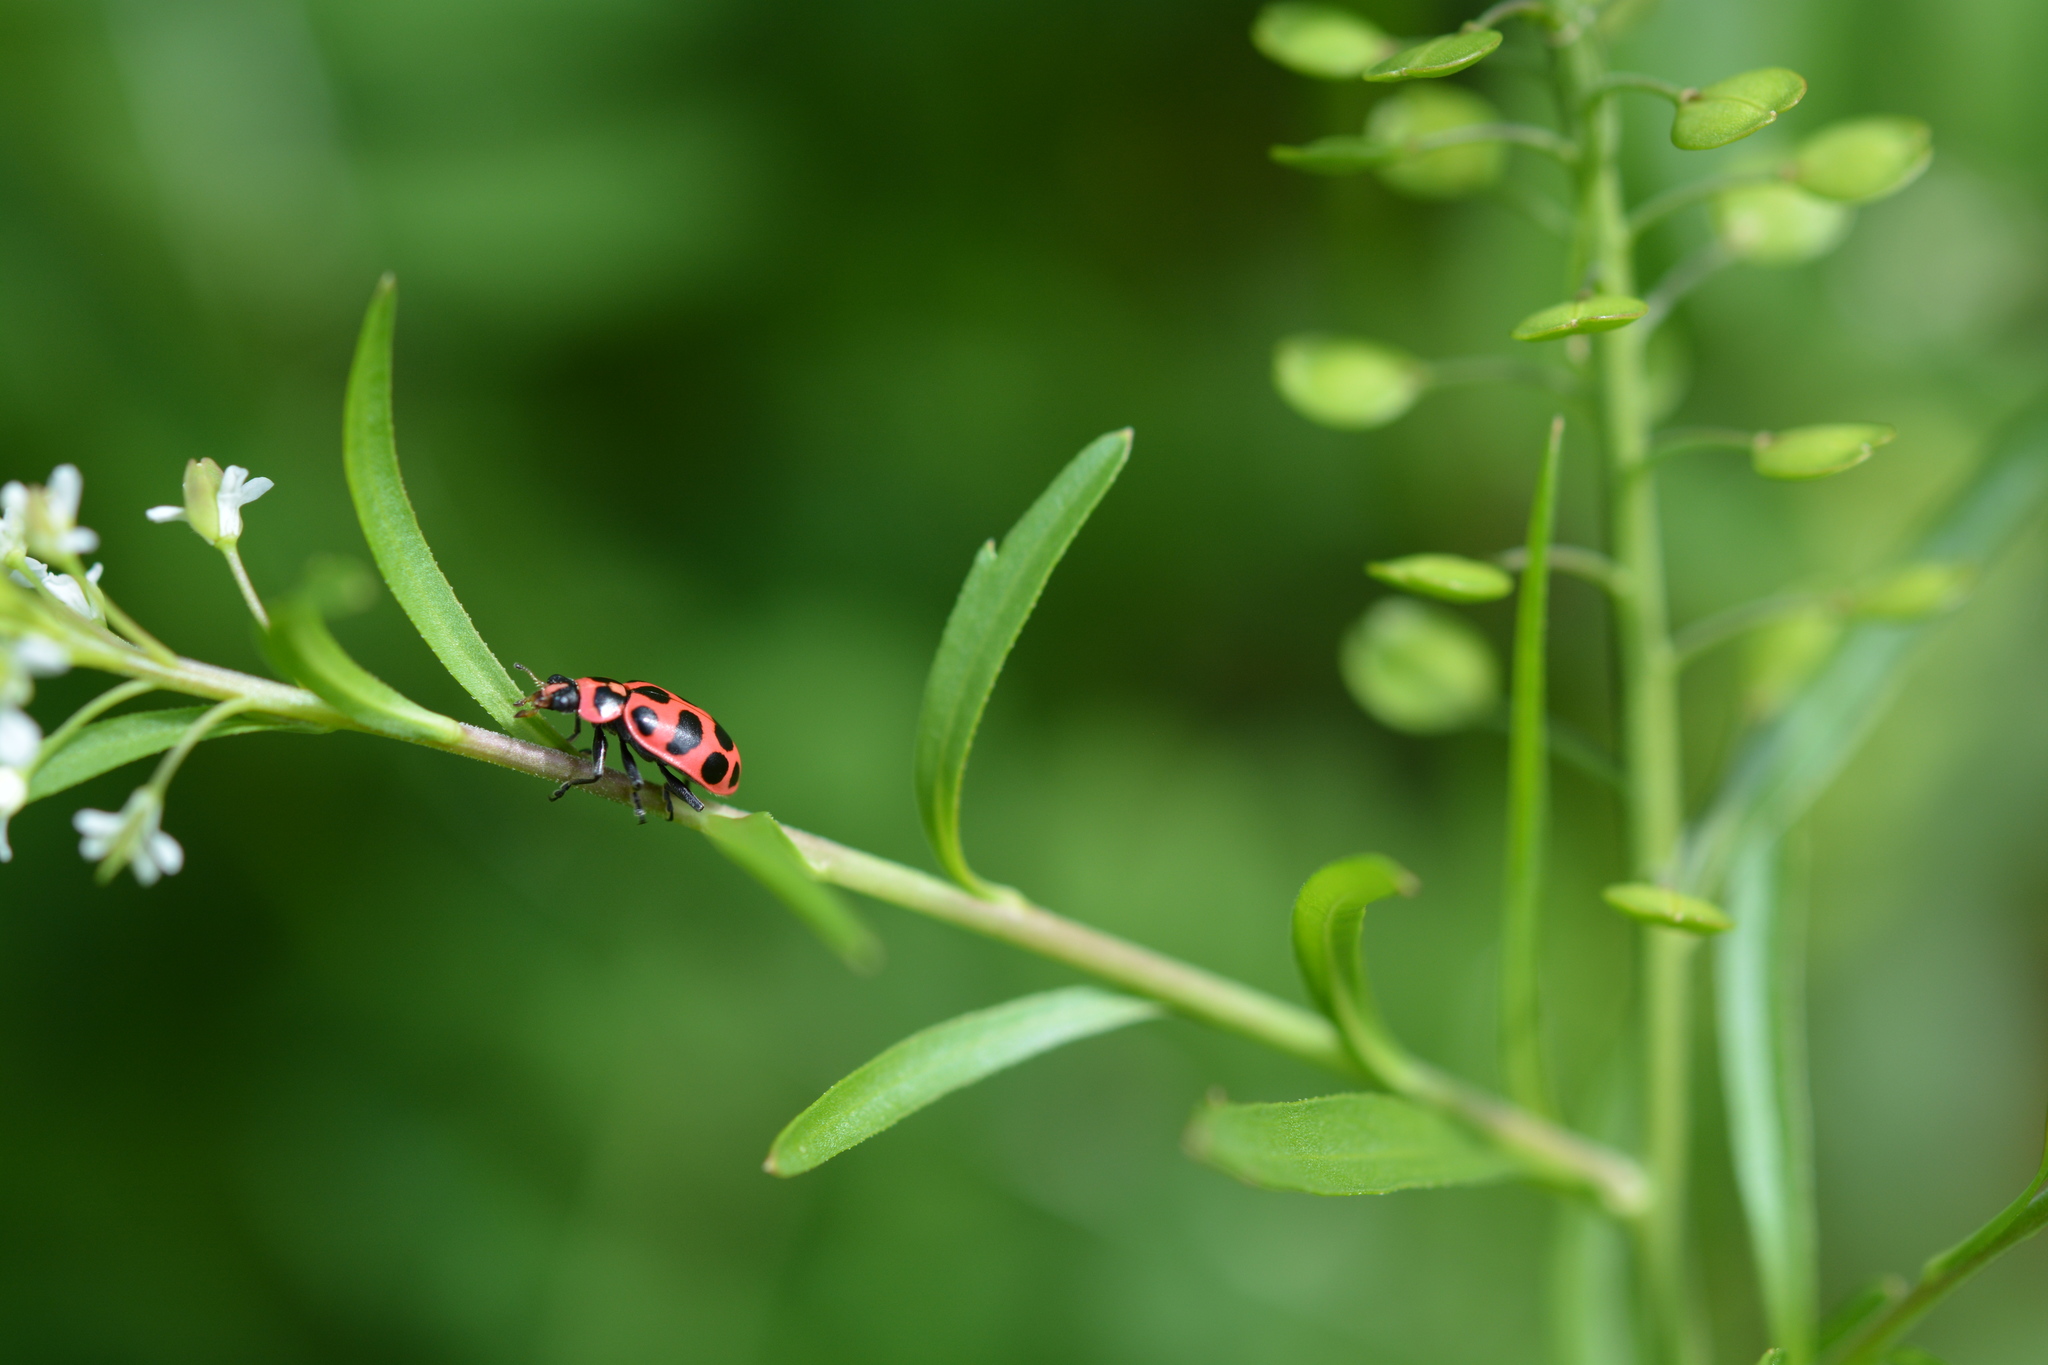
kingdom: Animalia
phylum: Arthropoda
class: Insecta
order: Coleoptera
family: Coccinellidae
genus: Coleomegilla
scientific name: Coleomegilla maculata
